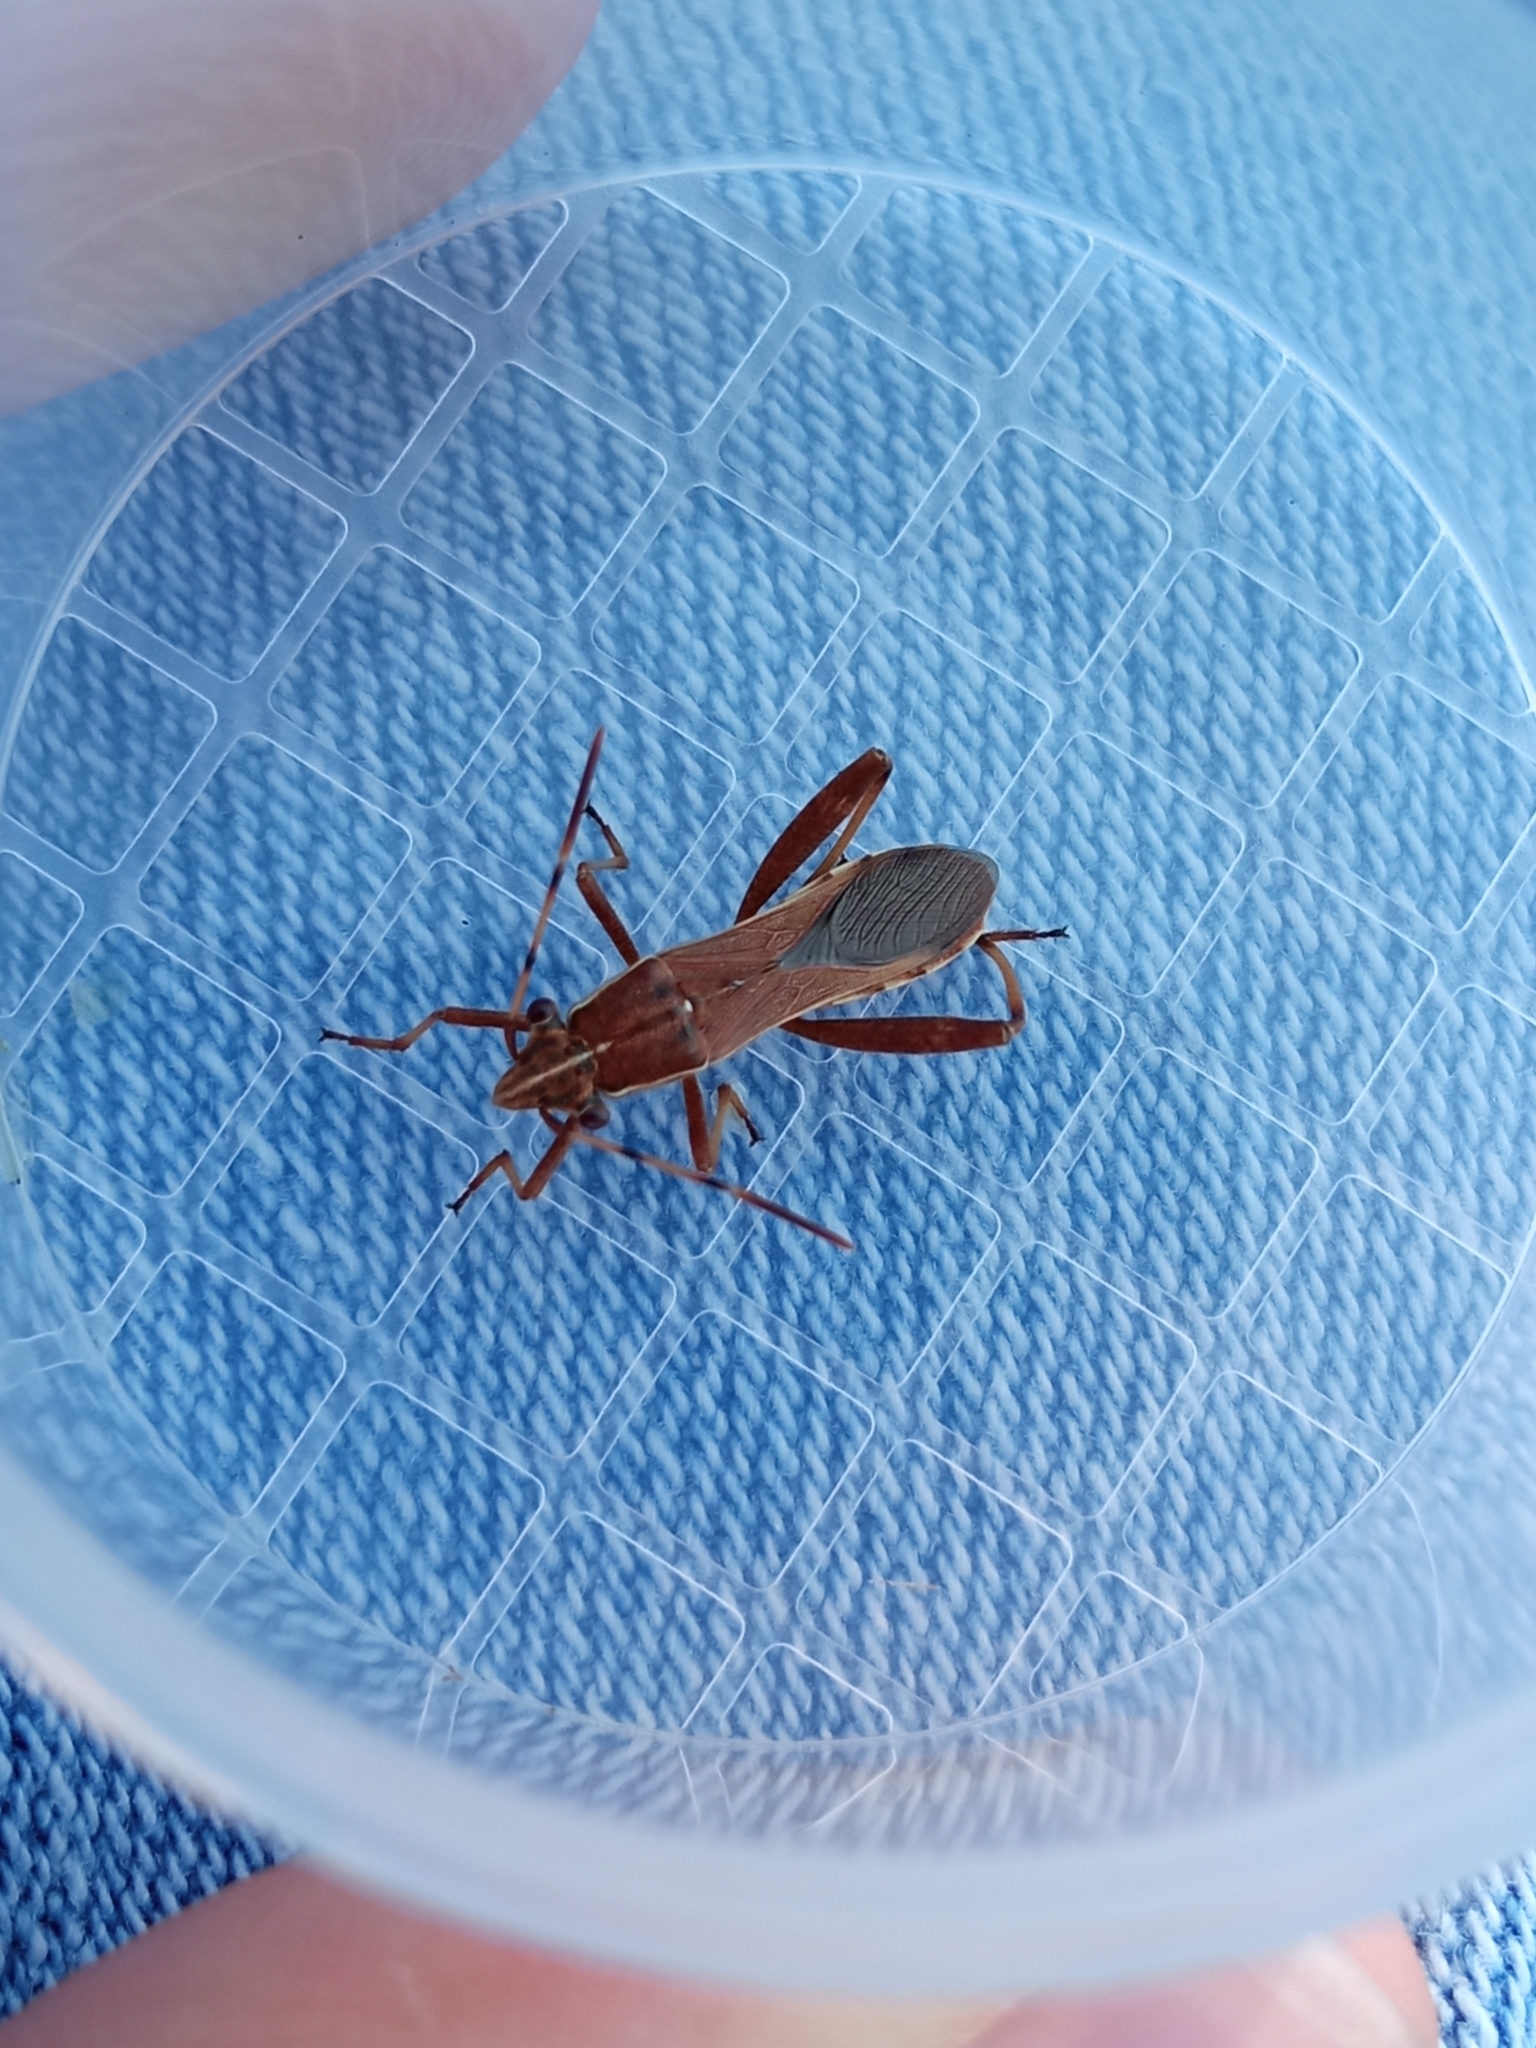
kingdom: Animalia
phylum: Arthropoda
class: Insecta
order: Hemiptera
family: Alydidae
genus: Camptopus
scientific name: Camptopus lateralis
